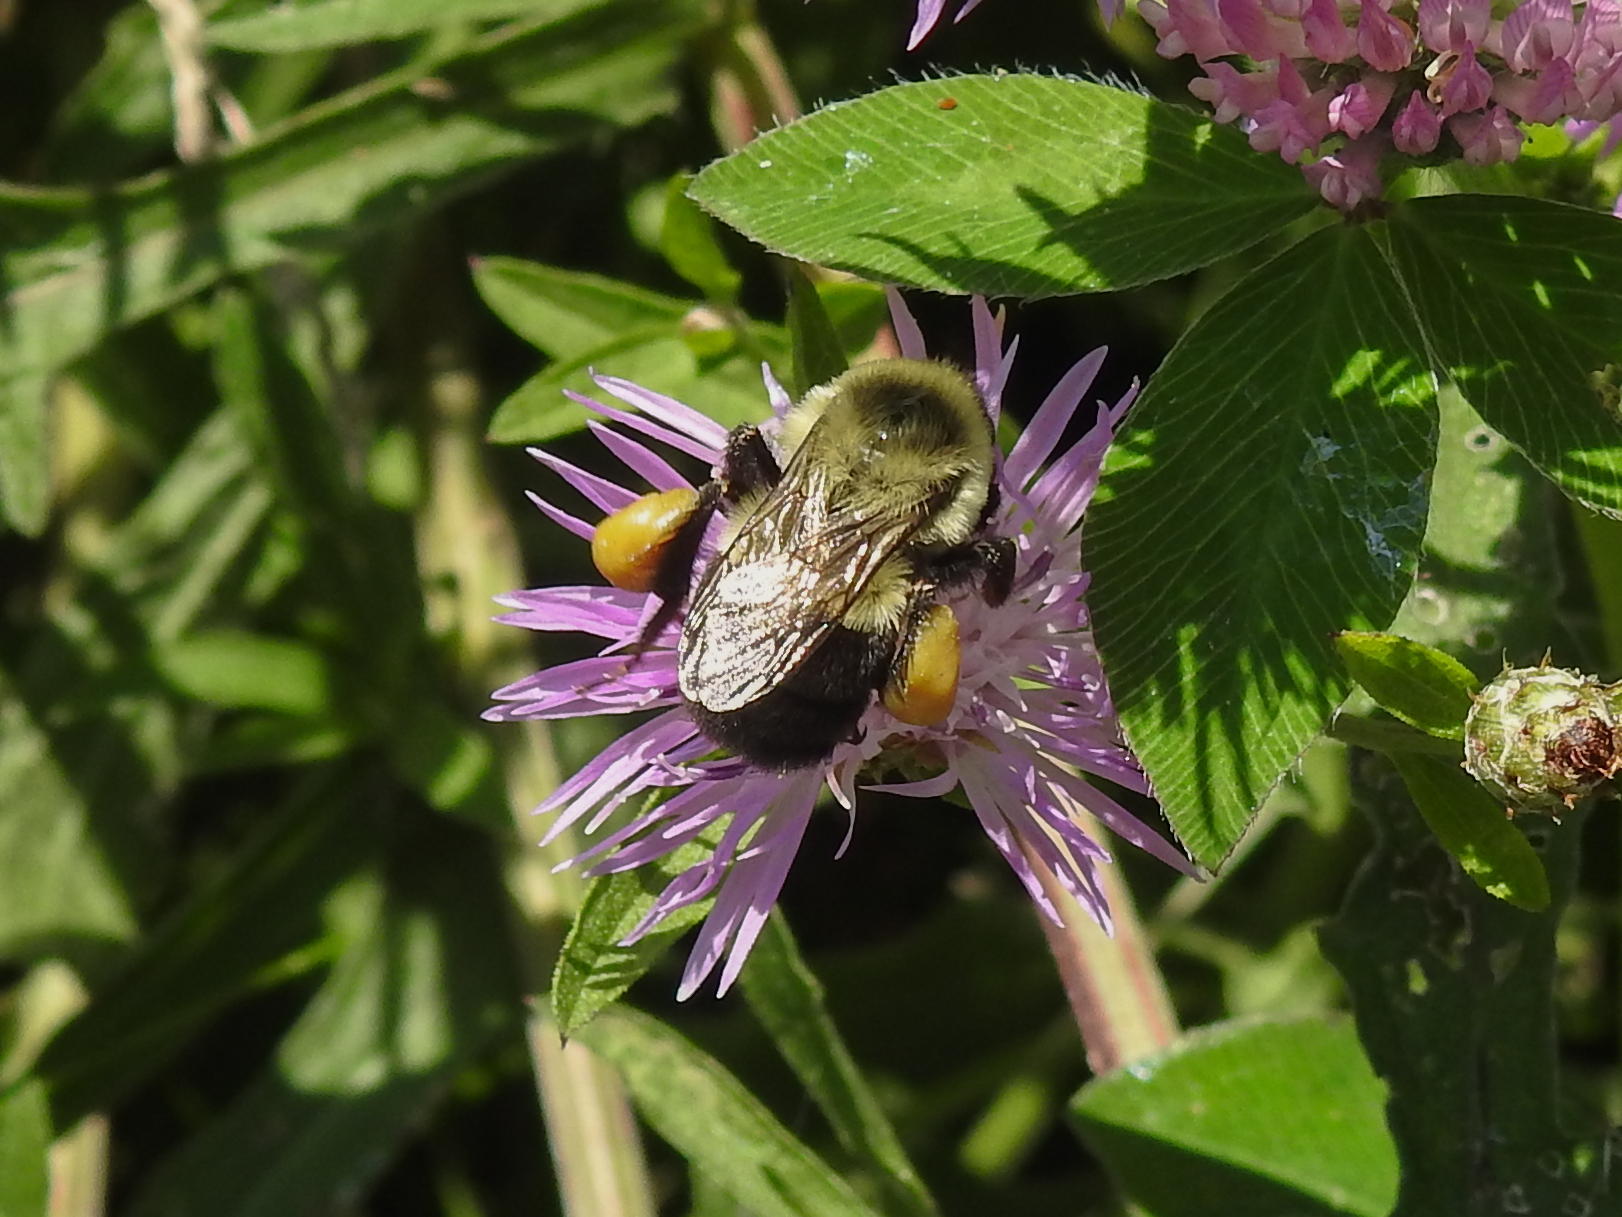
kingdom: Animalia
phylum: Arthropoda
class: Insecta
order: Hymenoptera
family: Apidae
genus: Bombus
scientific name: Bombus impatiens
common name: Common eastern bumble bee
